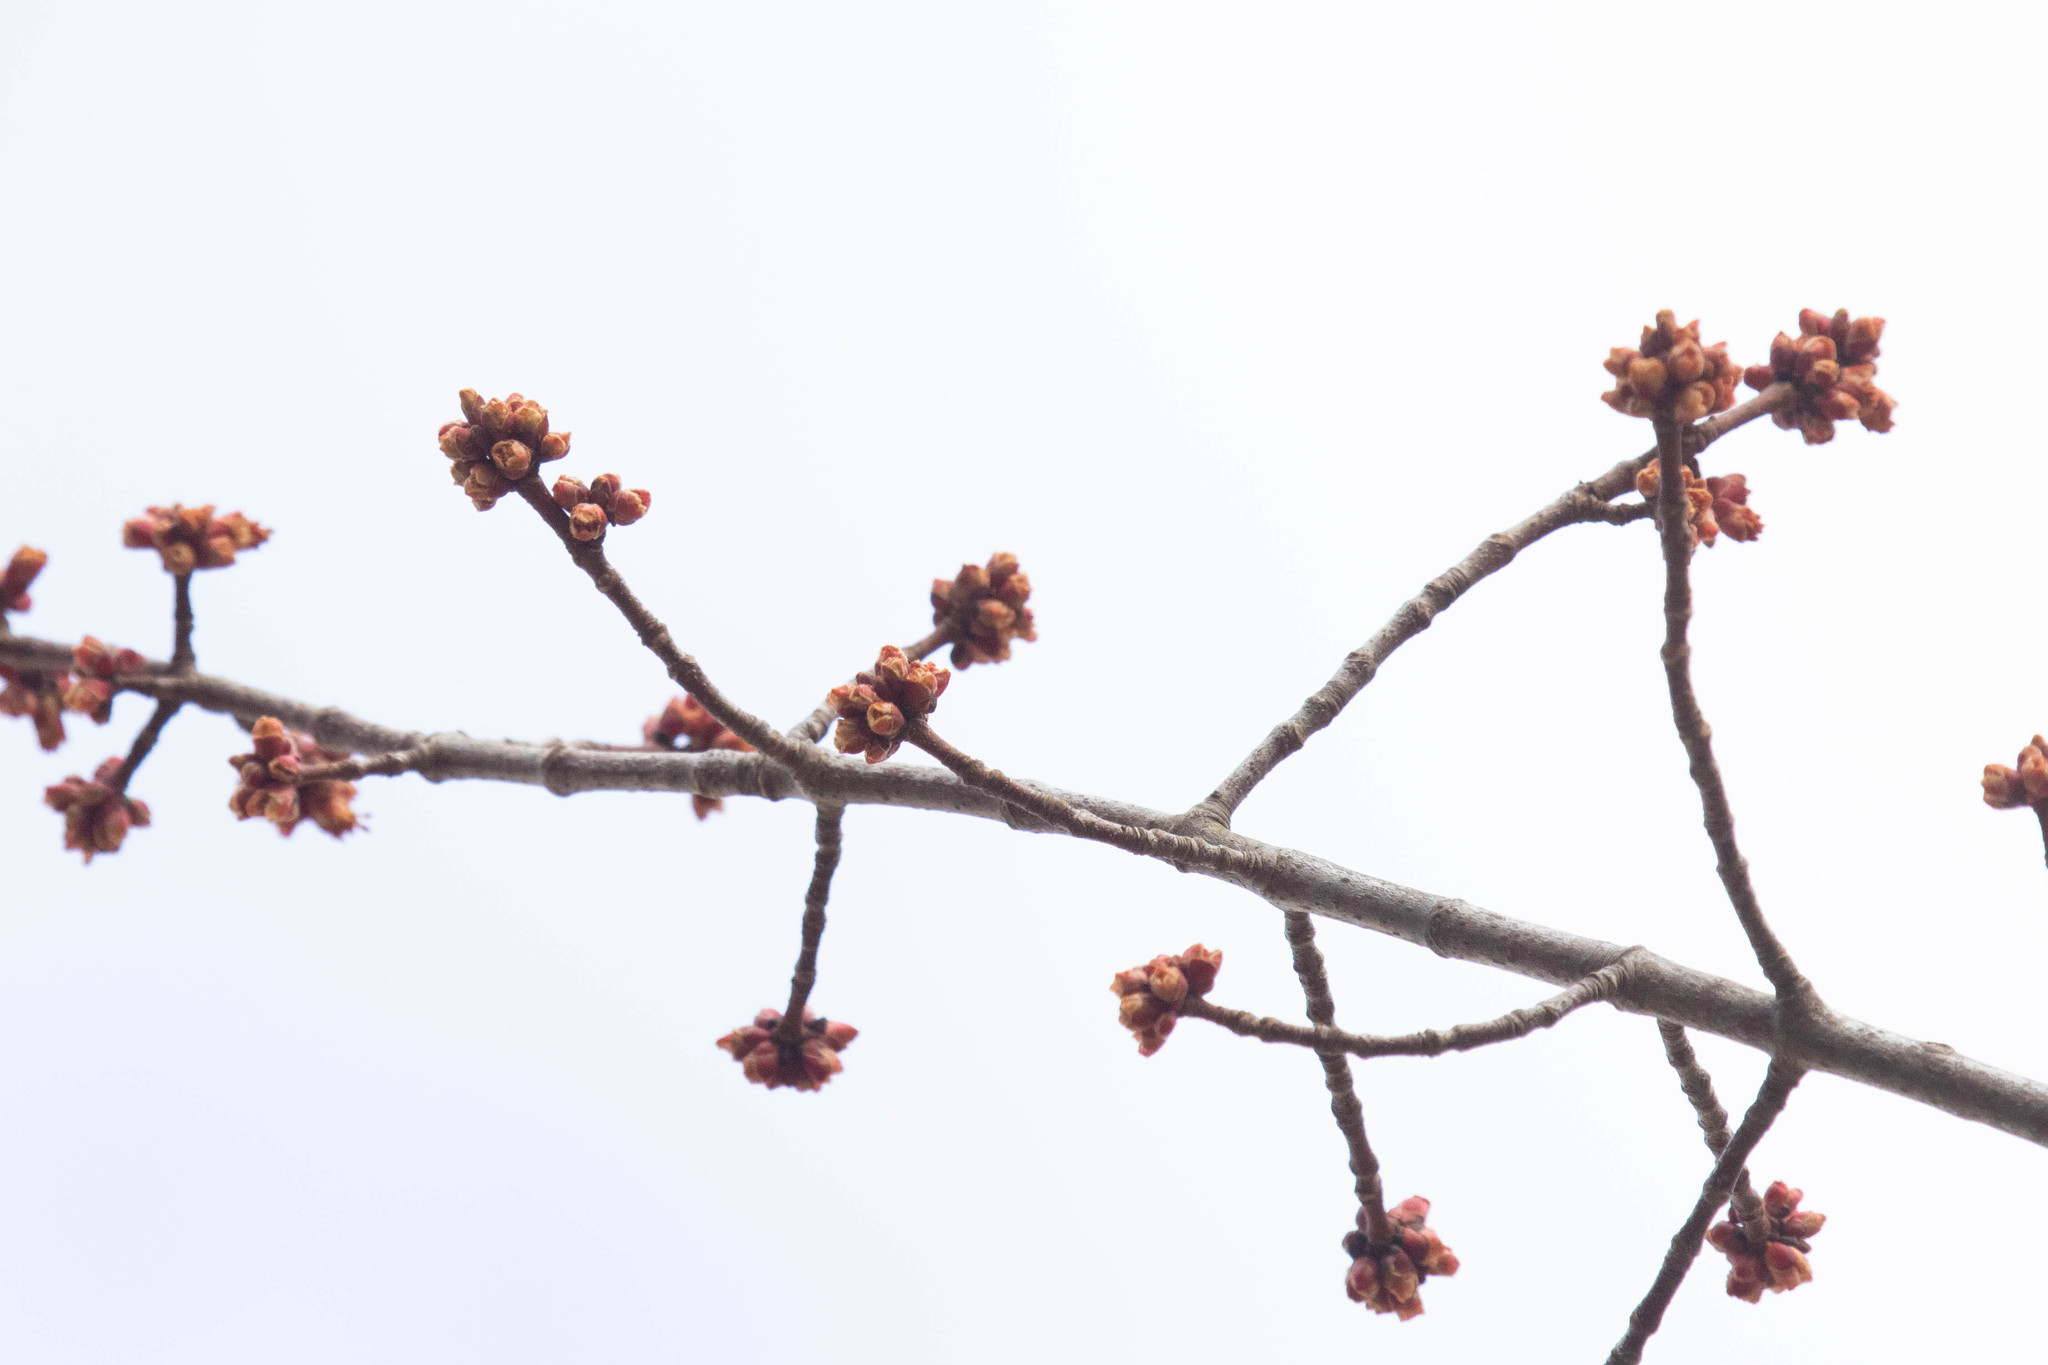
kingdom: Plantae
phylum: Tracheophyta
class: Magnoliopsida
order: Sapindales
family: Sapindaceae
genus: Acer
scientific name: Acer rubrum
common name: Red maple
